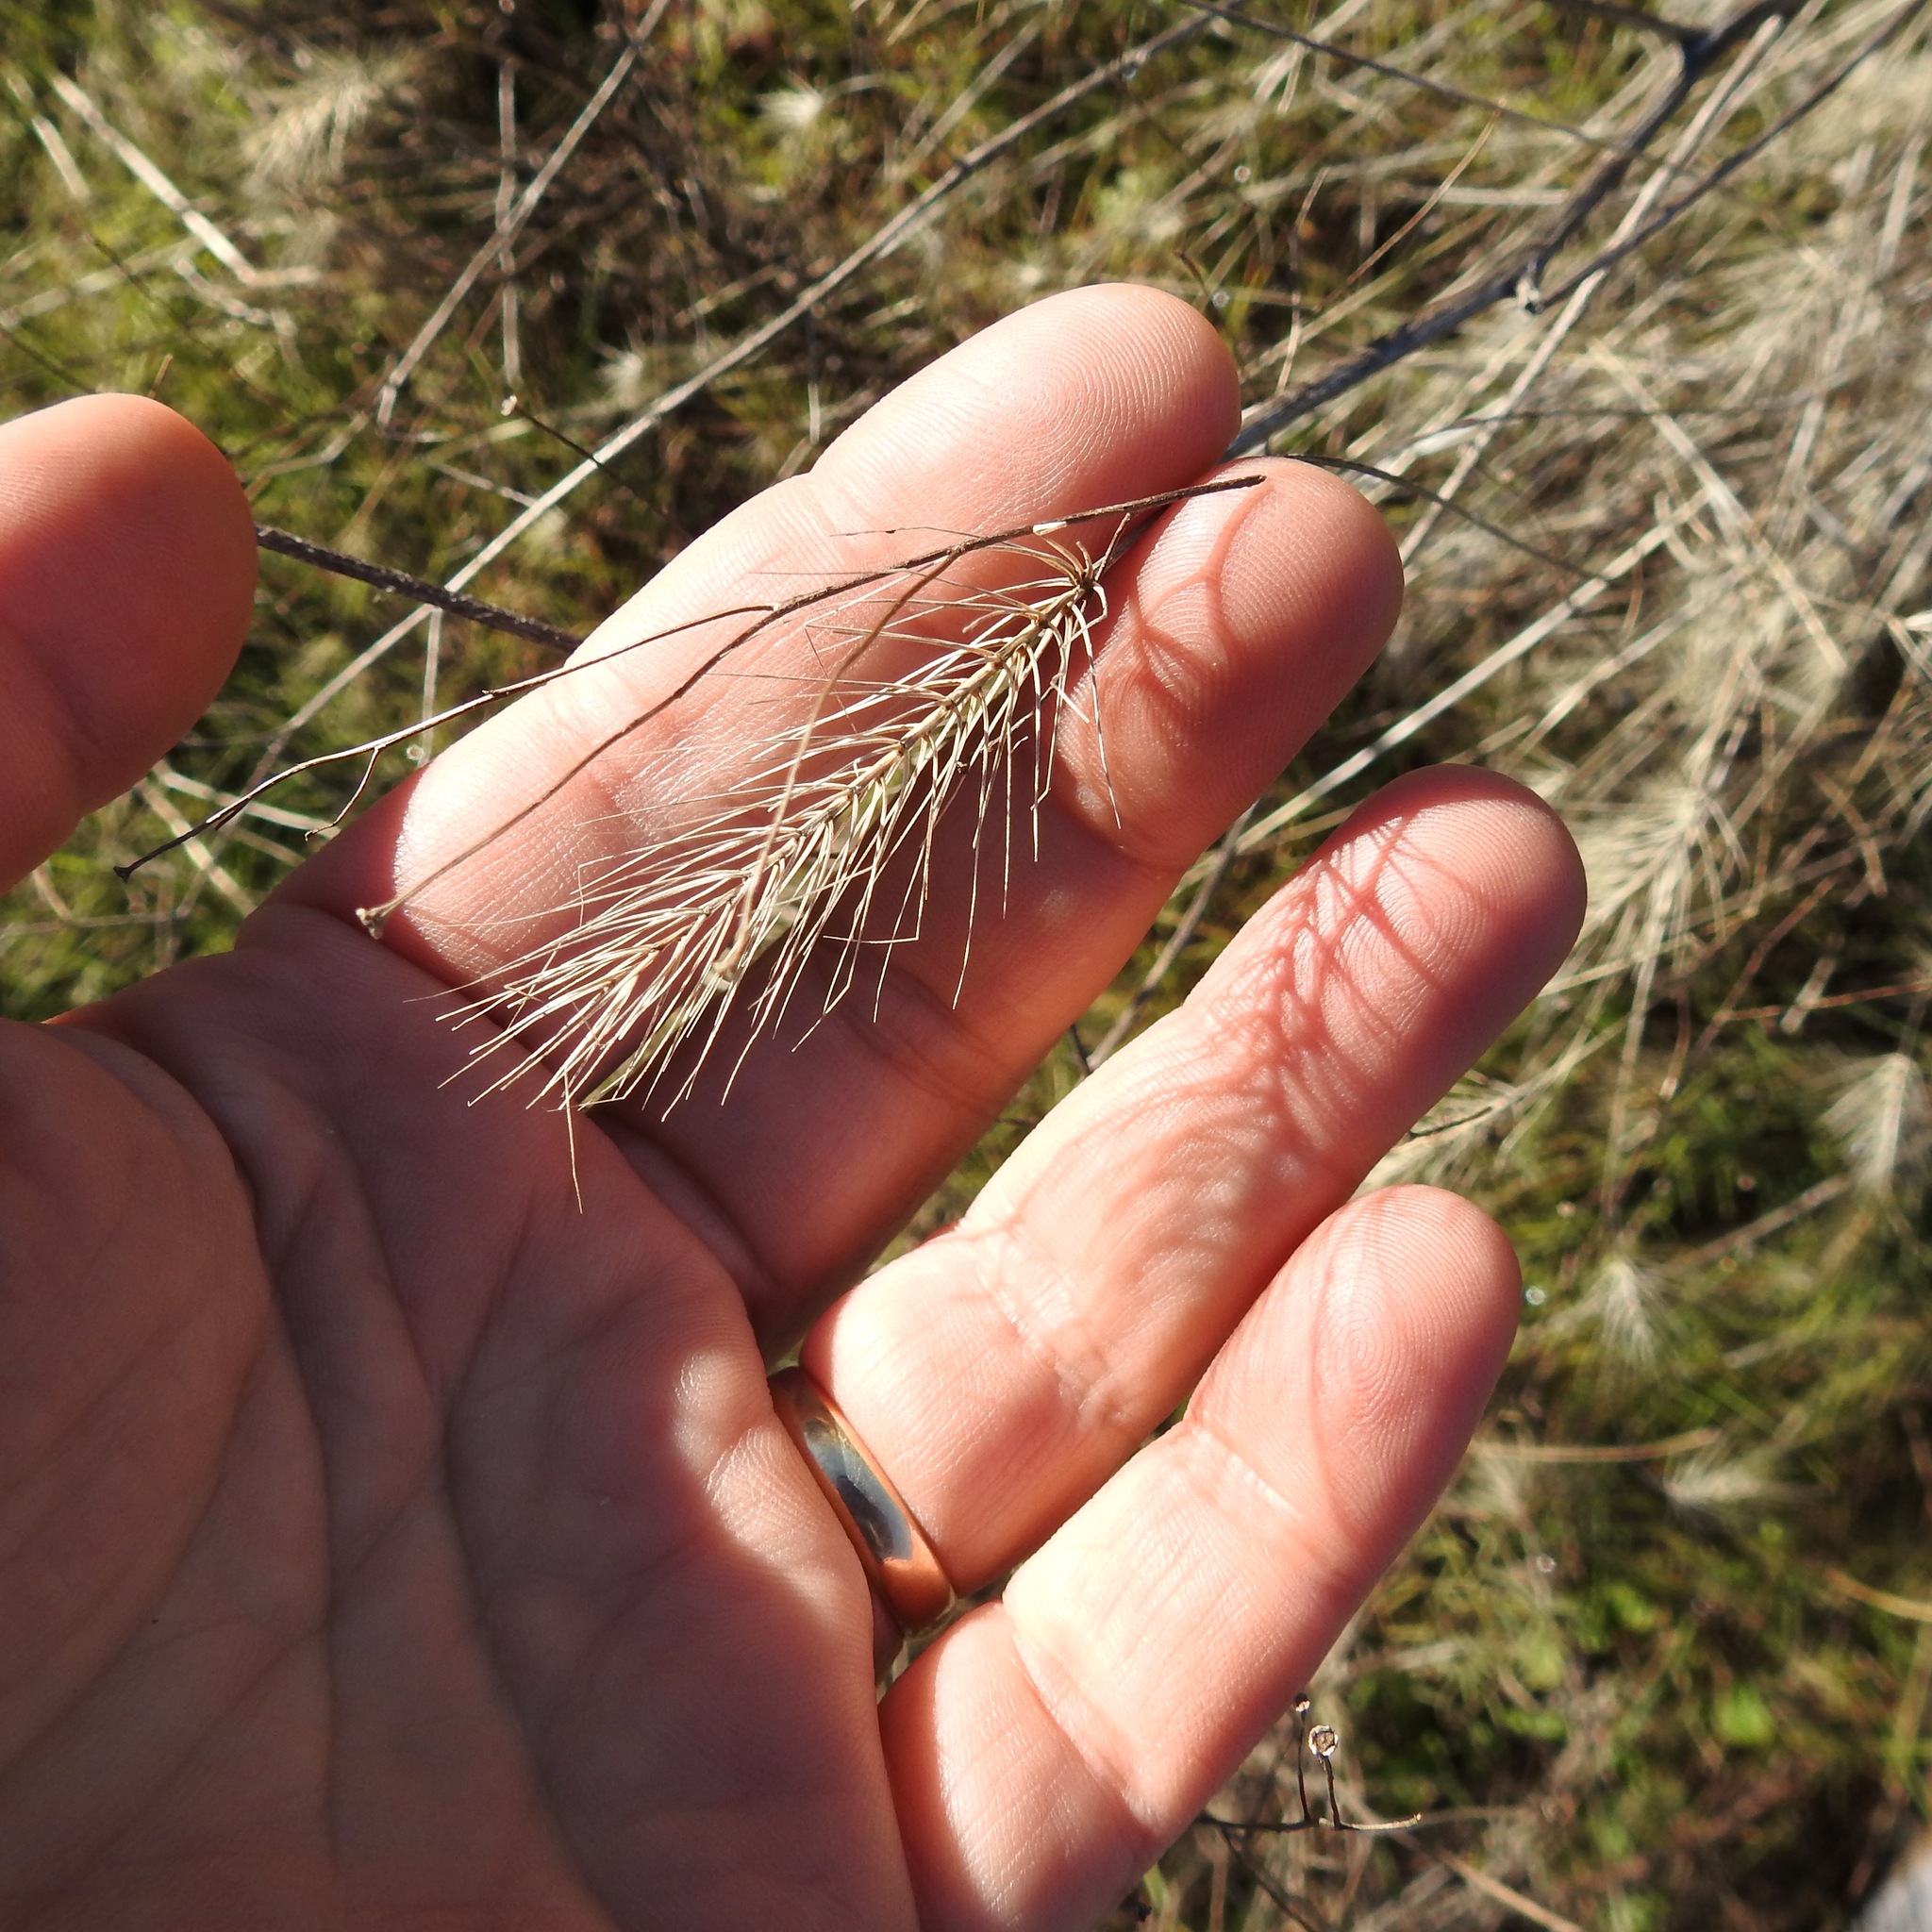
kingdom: Plantae
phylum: Tracheophyta
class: Liliopsida
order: Poales
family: Poaceae
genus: Taeniatherum
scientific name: Taeniatherum caput-medusae
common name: Medusahead
